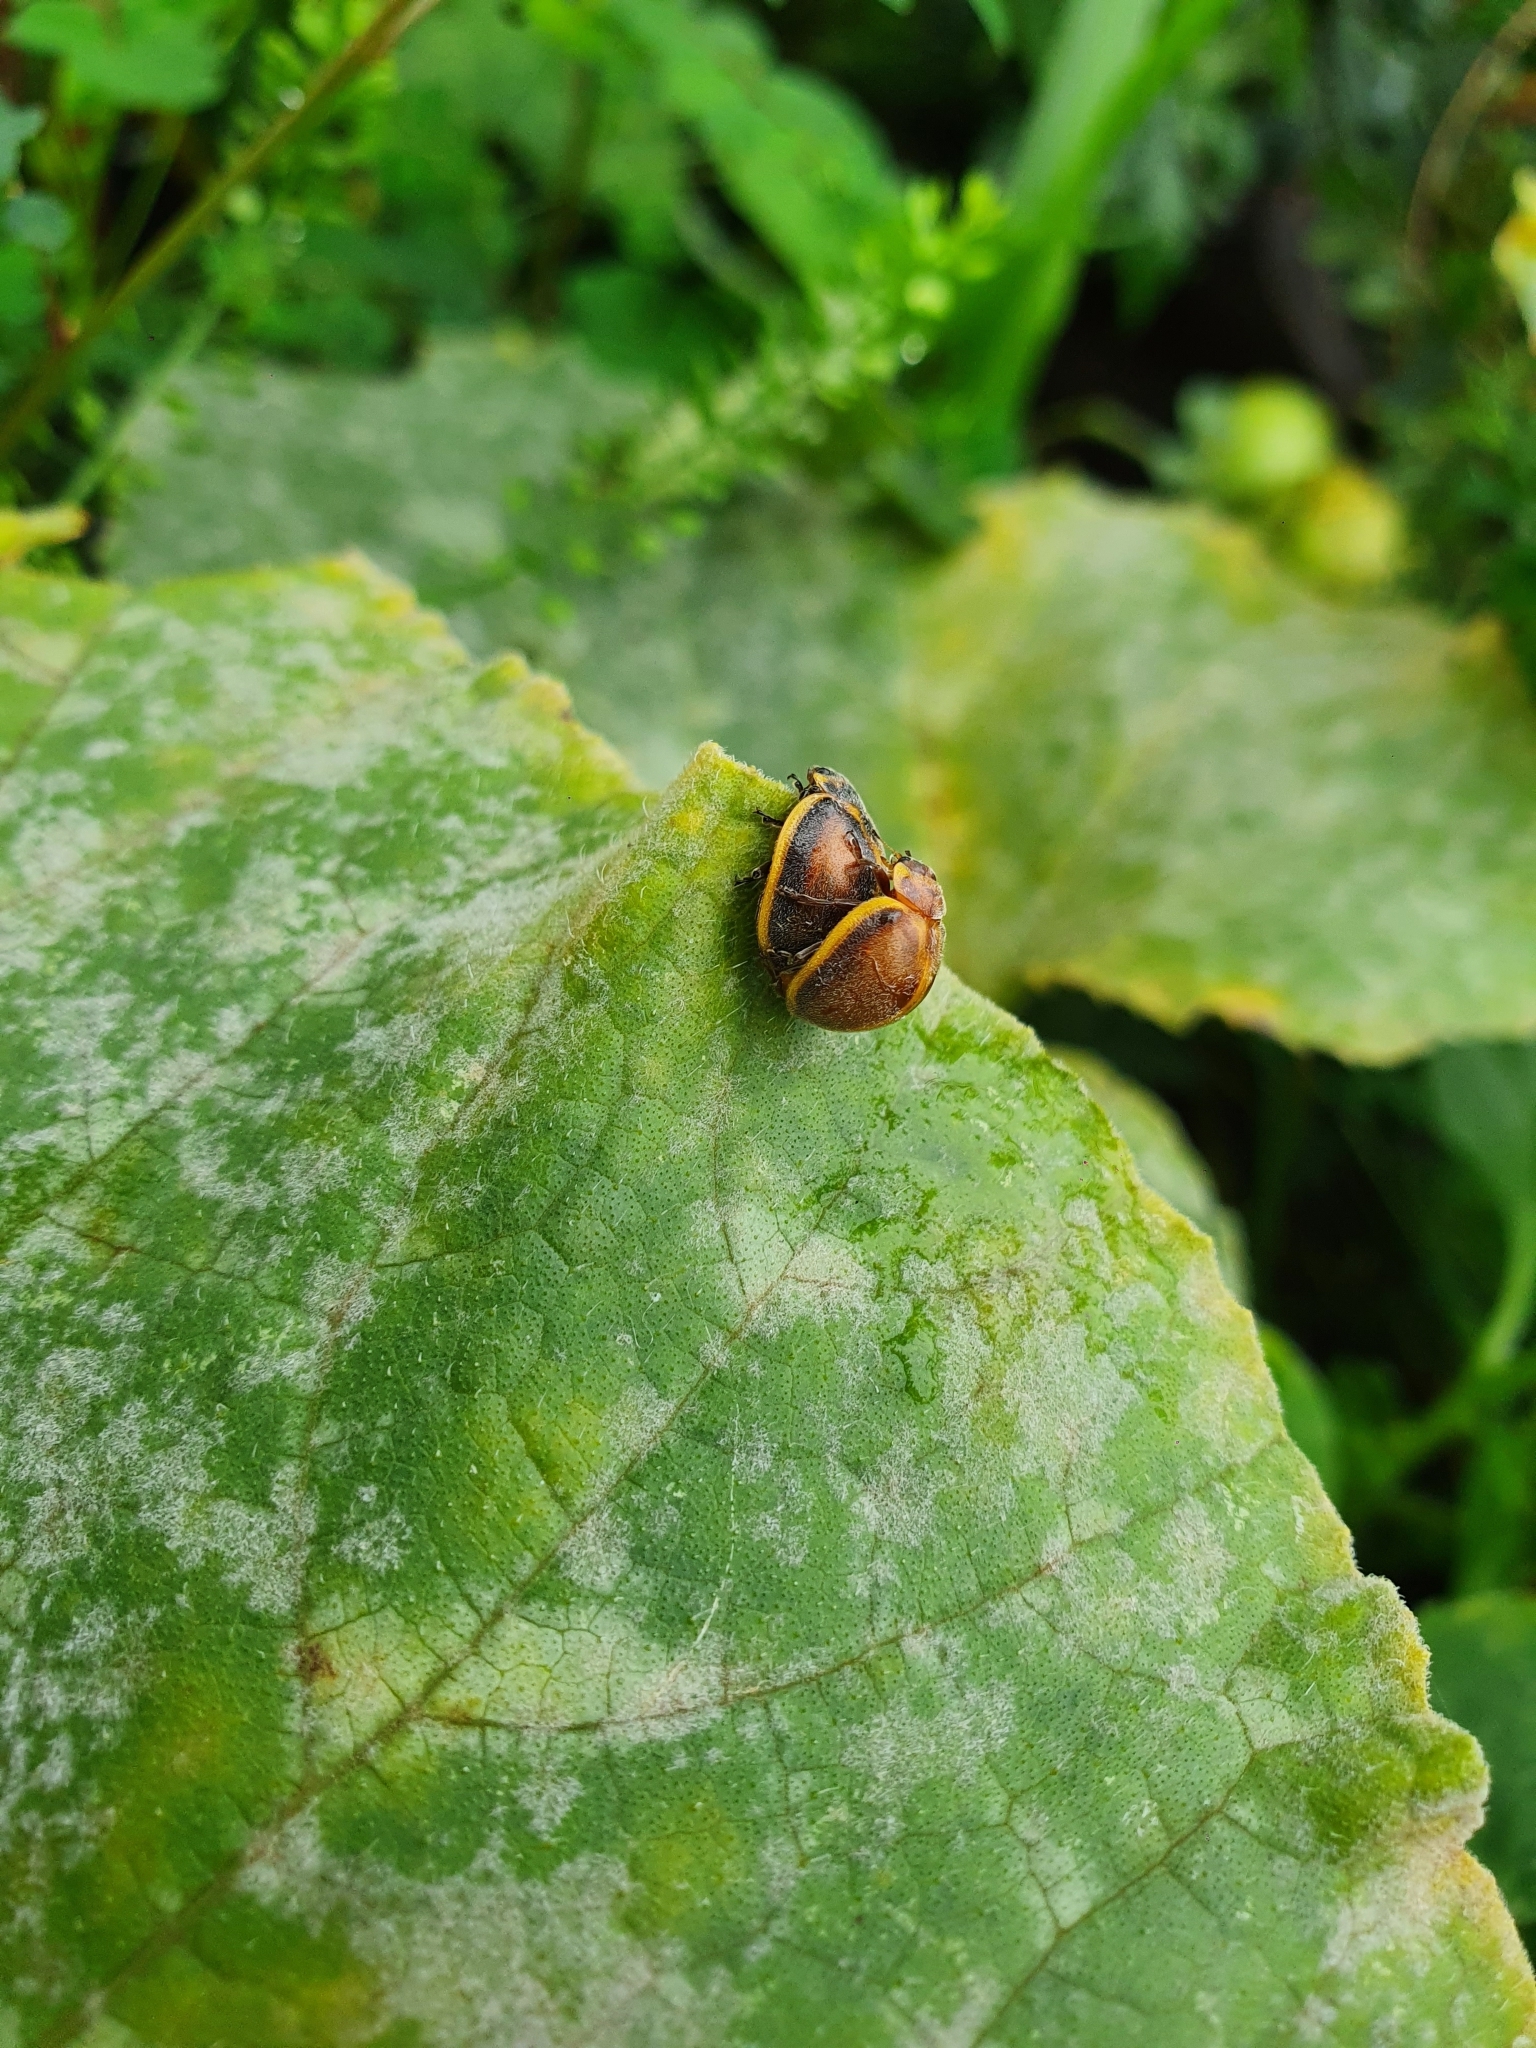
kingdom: Animalia
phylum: Arthropoda
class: Insecta
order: Coleoptera
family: Coccinellidae
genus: Epilachna
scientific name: Epilachna
